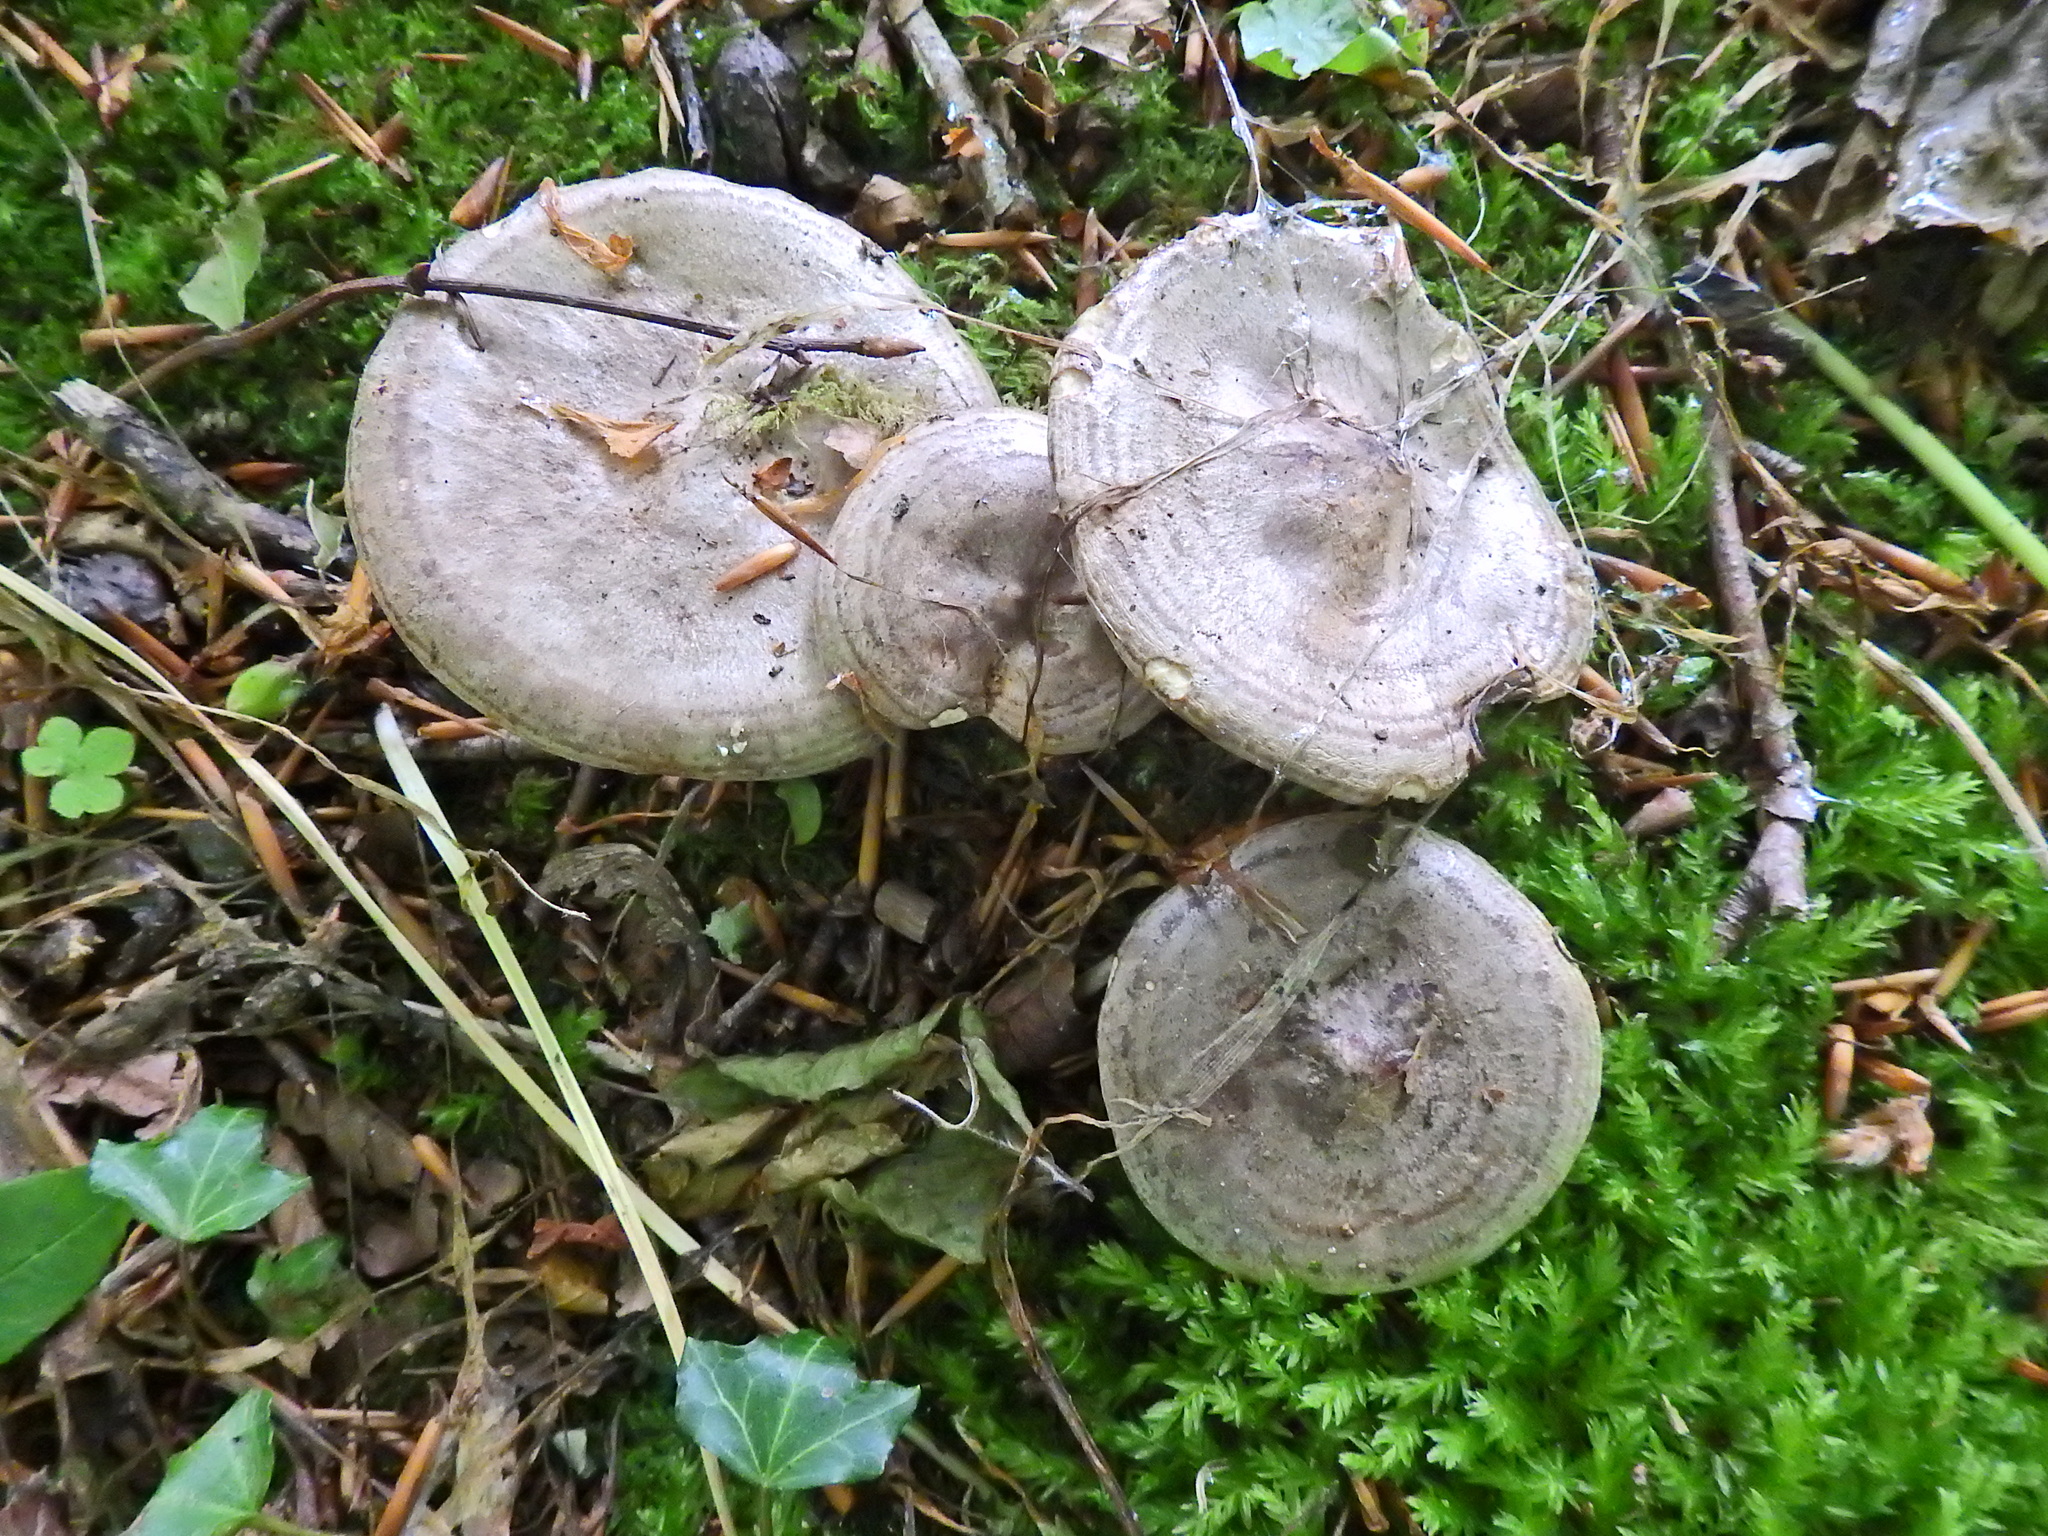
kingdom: Fungi
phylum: Basidiomycota
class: Agaricomycetes
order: Russulales
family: Russulaceae
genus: Lactarius
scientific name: Lactarius blennius
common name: Beech milkcap
